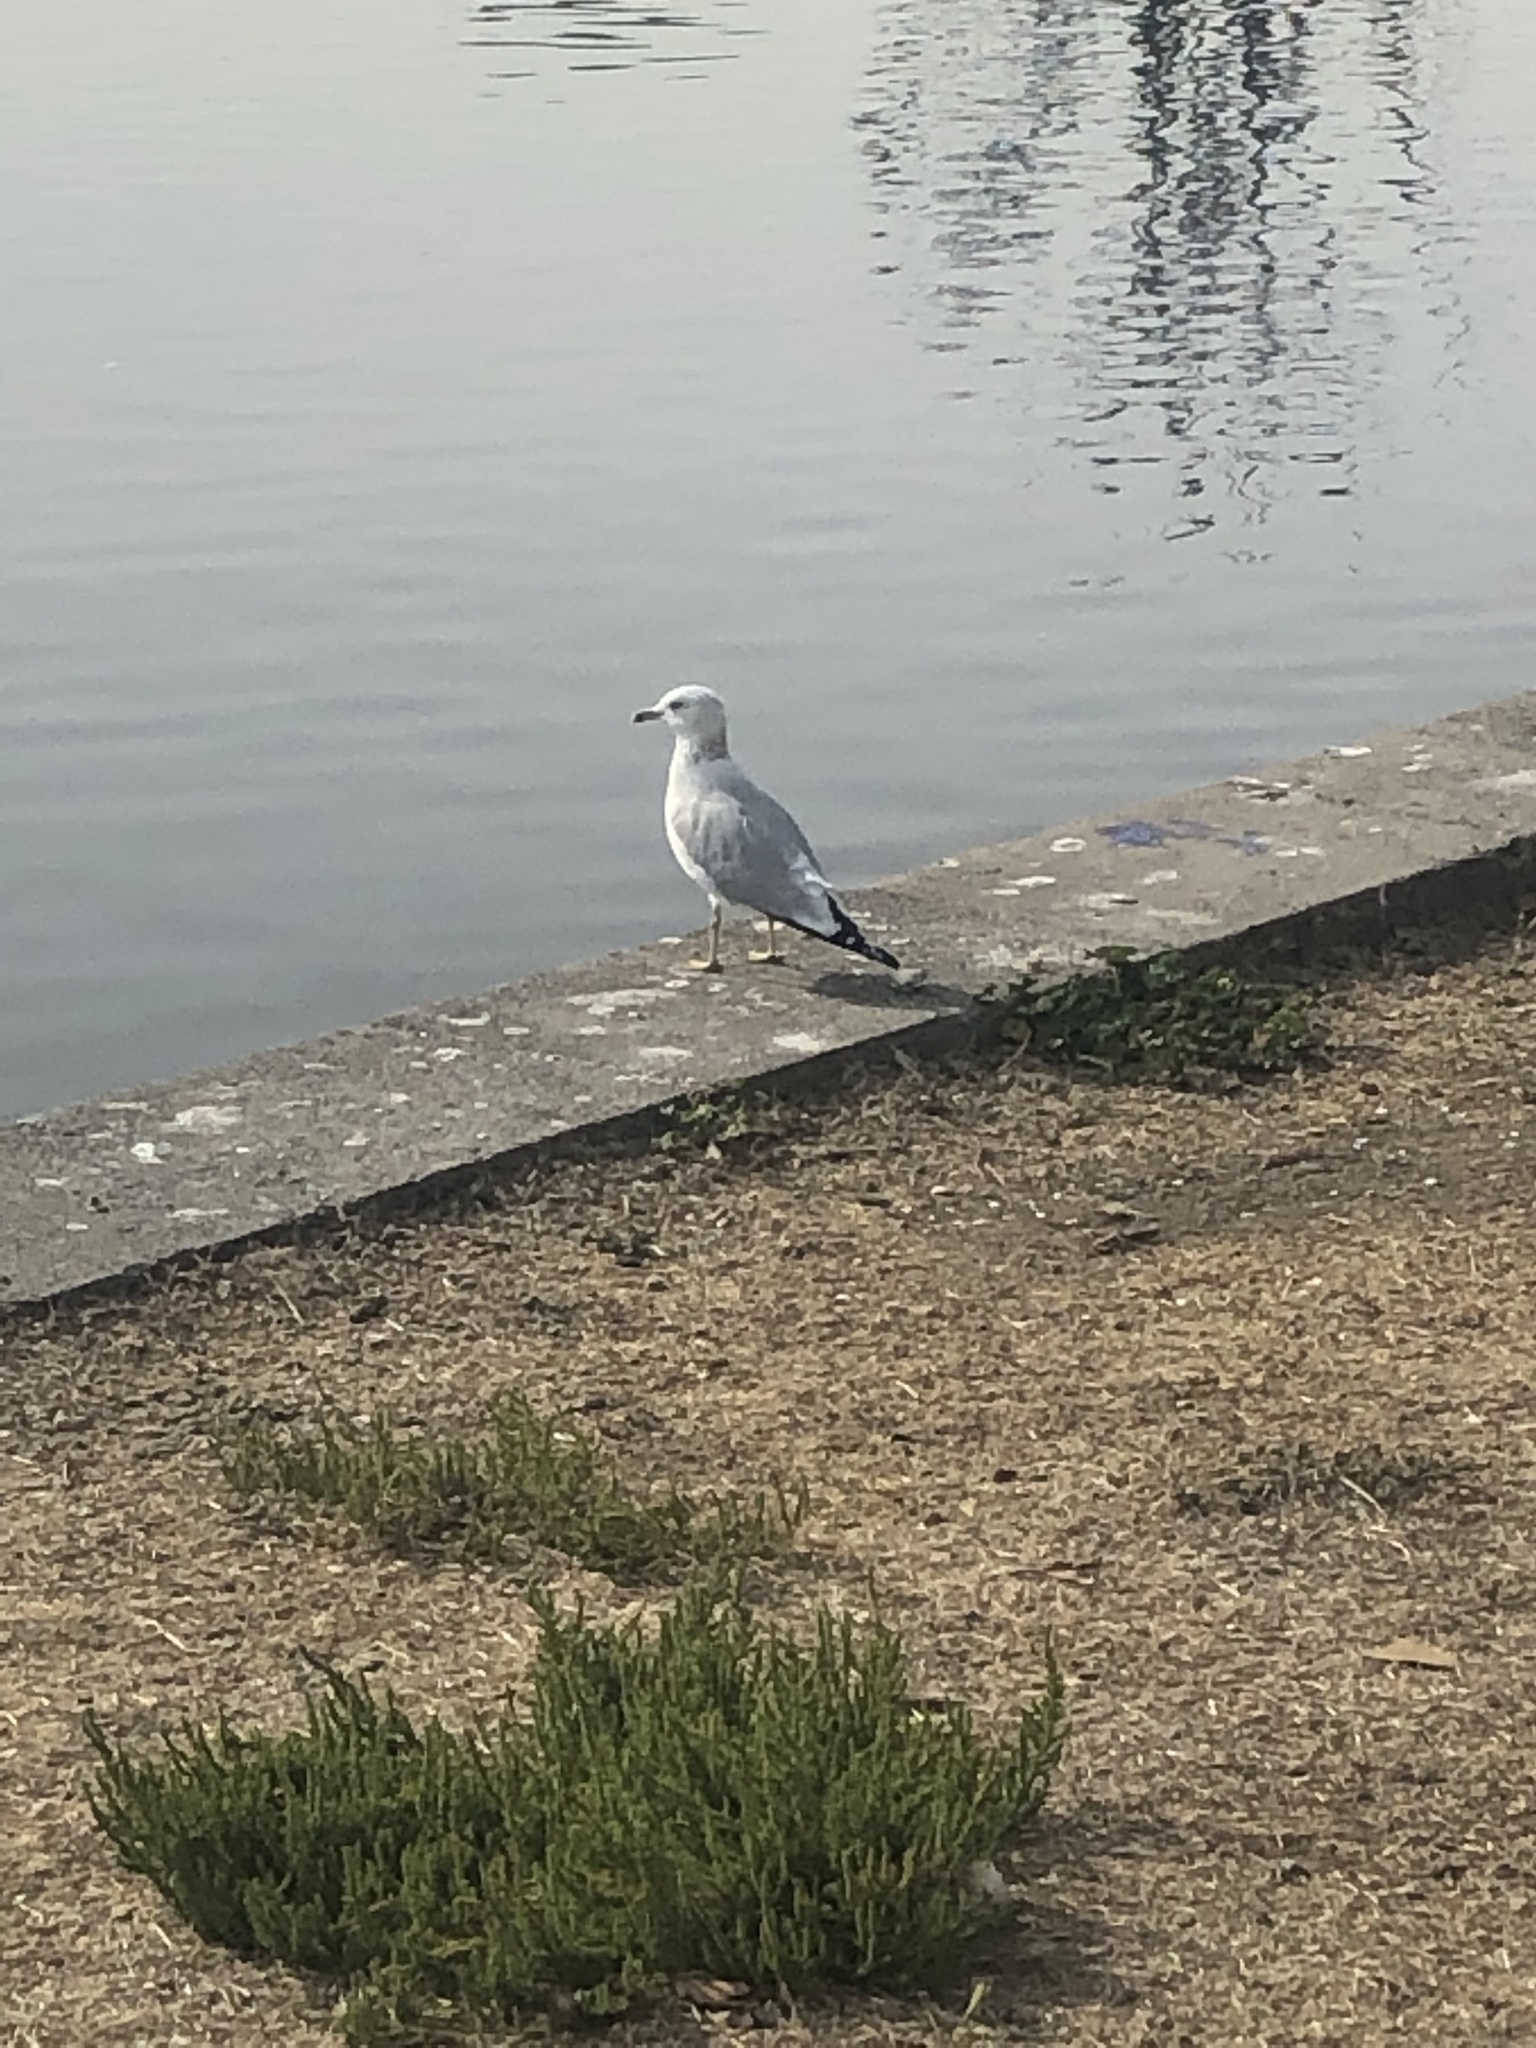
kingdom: Animalia
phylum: Chordata
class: Aves
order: Charadriiformes
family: Laridae
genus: Larus
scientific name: Larus delawarensis
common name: Ring-billed gull
